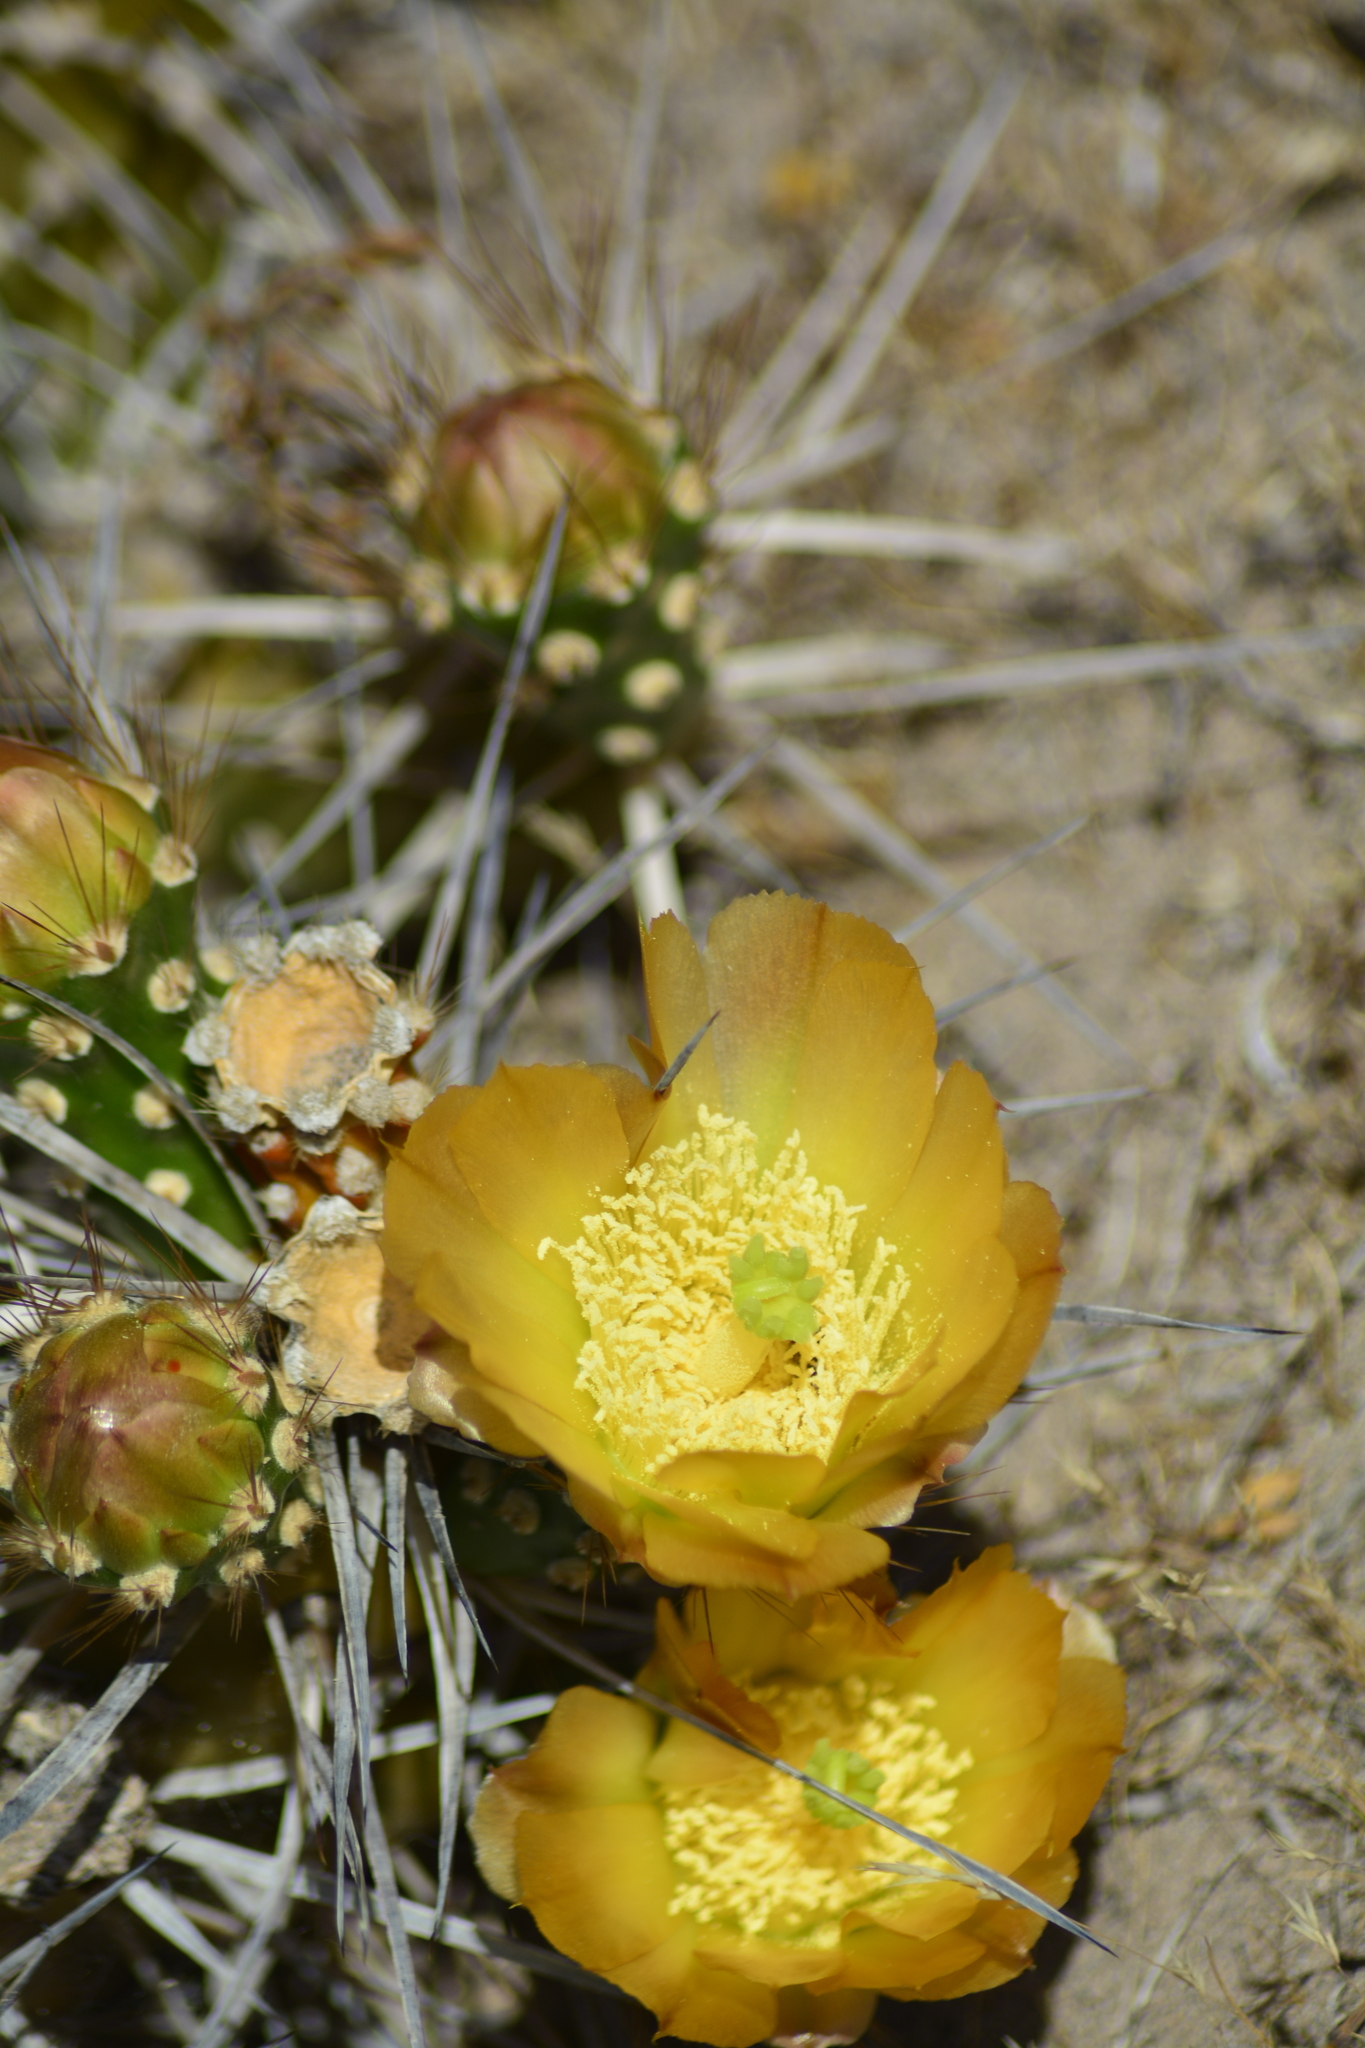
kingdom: Plantae
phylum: Tracheophyta
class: Magnoliopsida
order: Caryophyllales
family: Cactaceae
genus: Maihueniopsis
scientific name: Maihueniopsis darwinii
